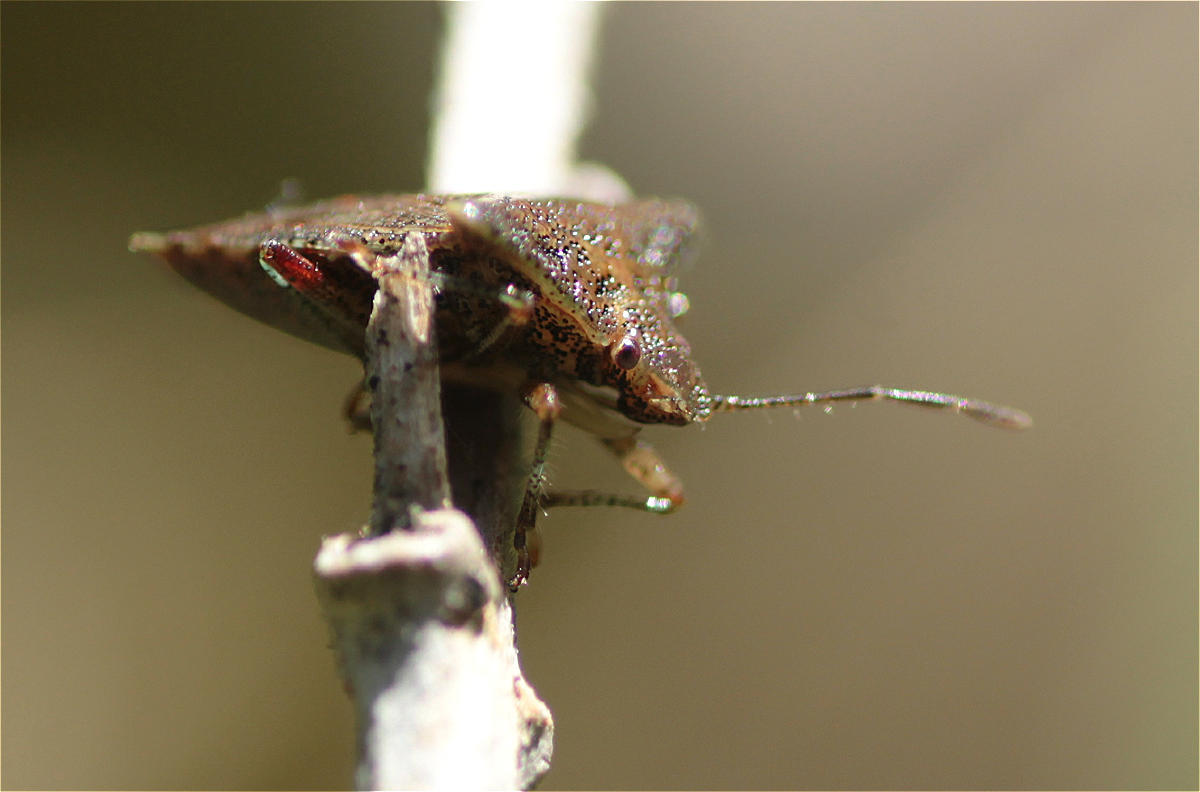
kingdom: Animalia
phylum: Arthropoda
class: Insecta
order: Hemiptera
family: Acanthosomatidae
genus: Bebaeus
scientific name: Bebaeus punctipes
